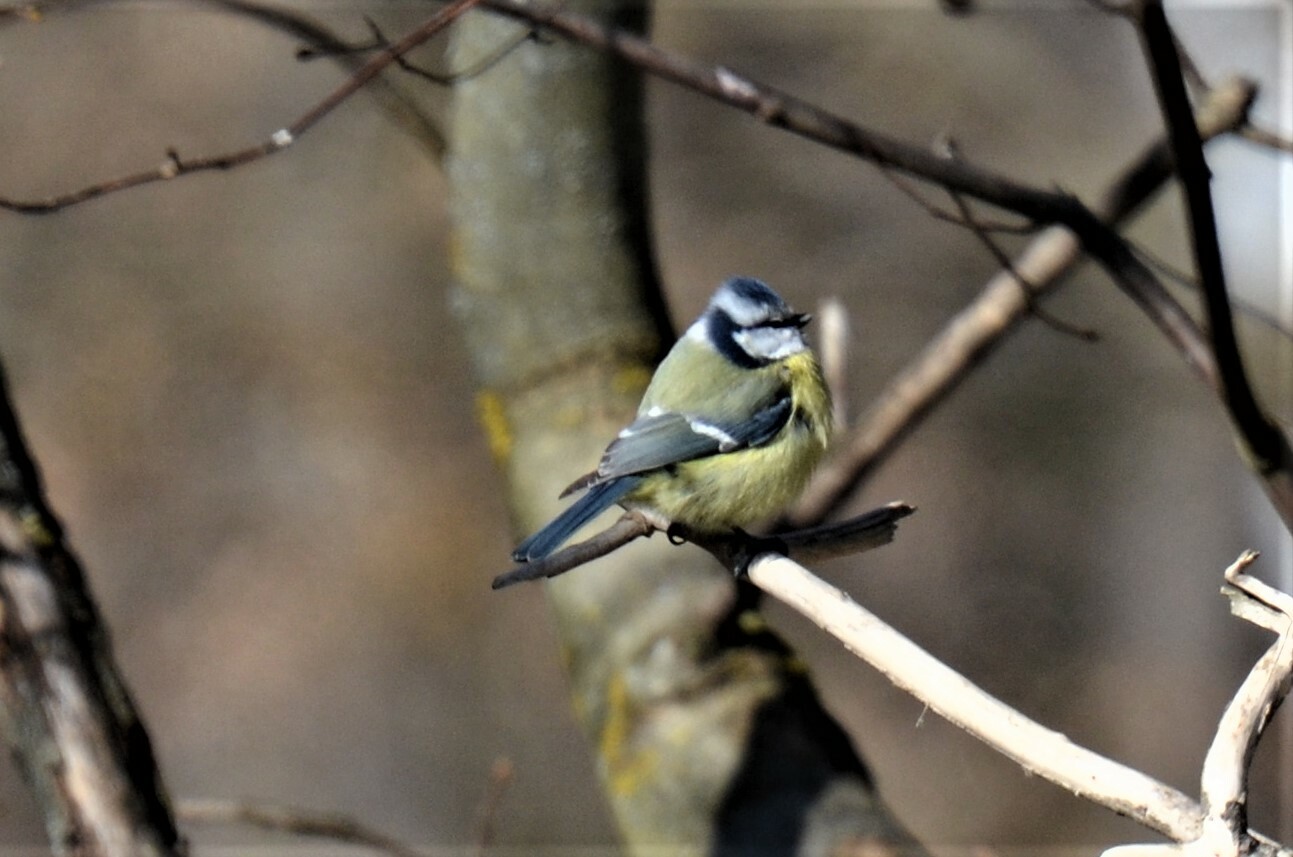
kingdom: Animalia
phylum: Chordata
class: Aves
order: Passeriformes
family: Paridae
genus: Cyanistes
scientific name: Cyanistes caeruleus
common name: Eurasian blue tit
